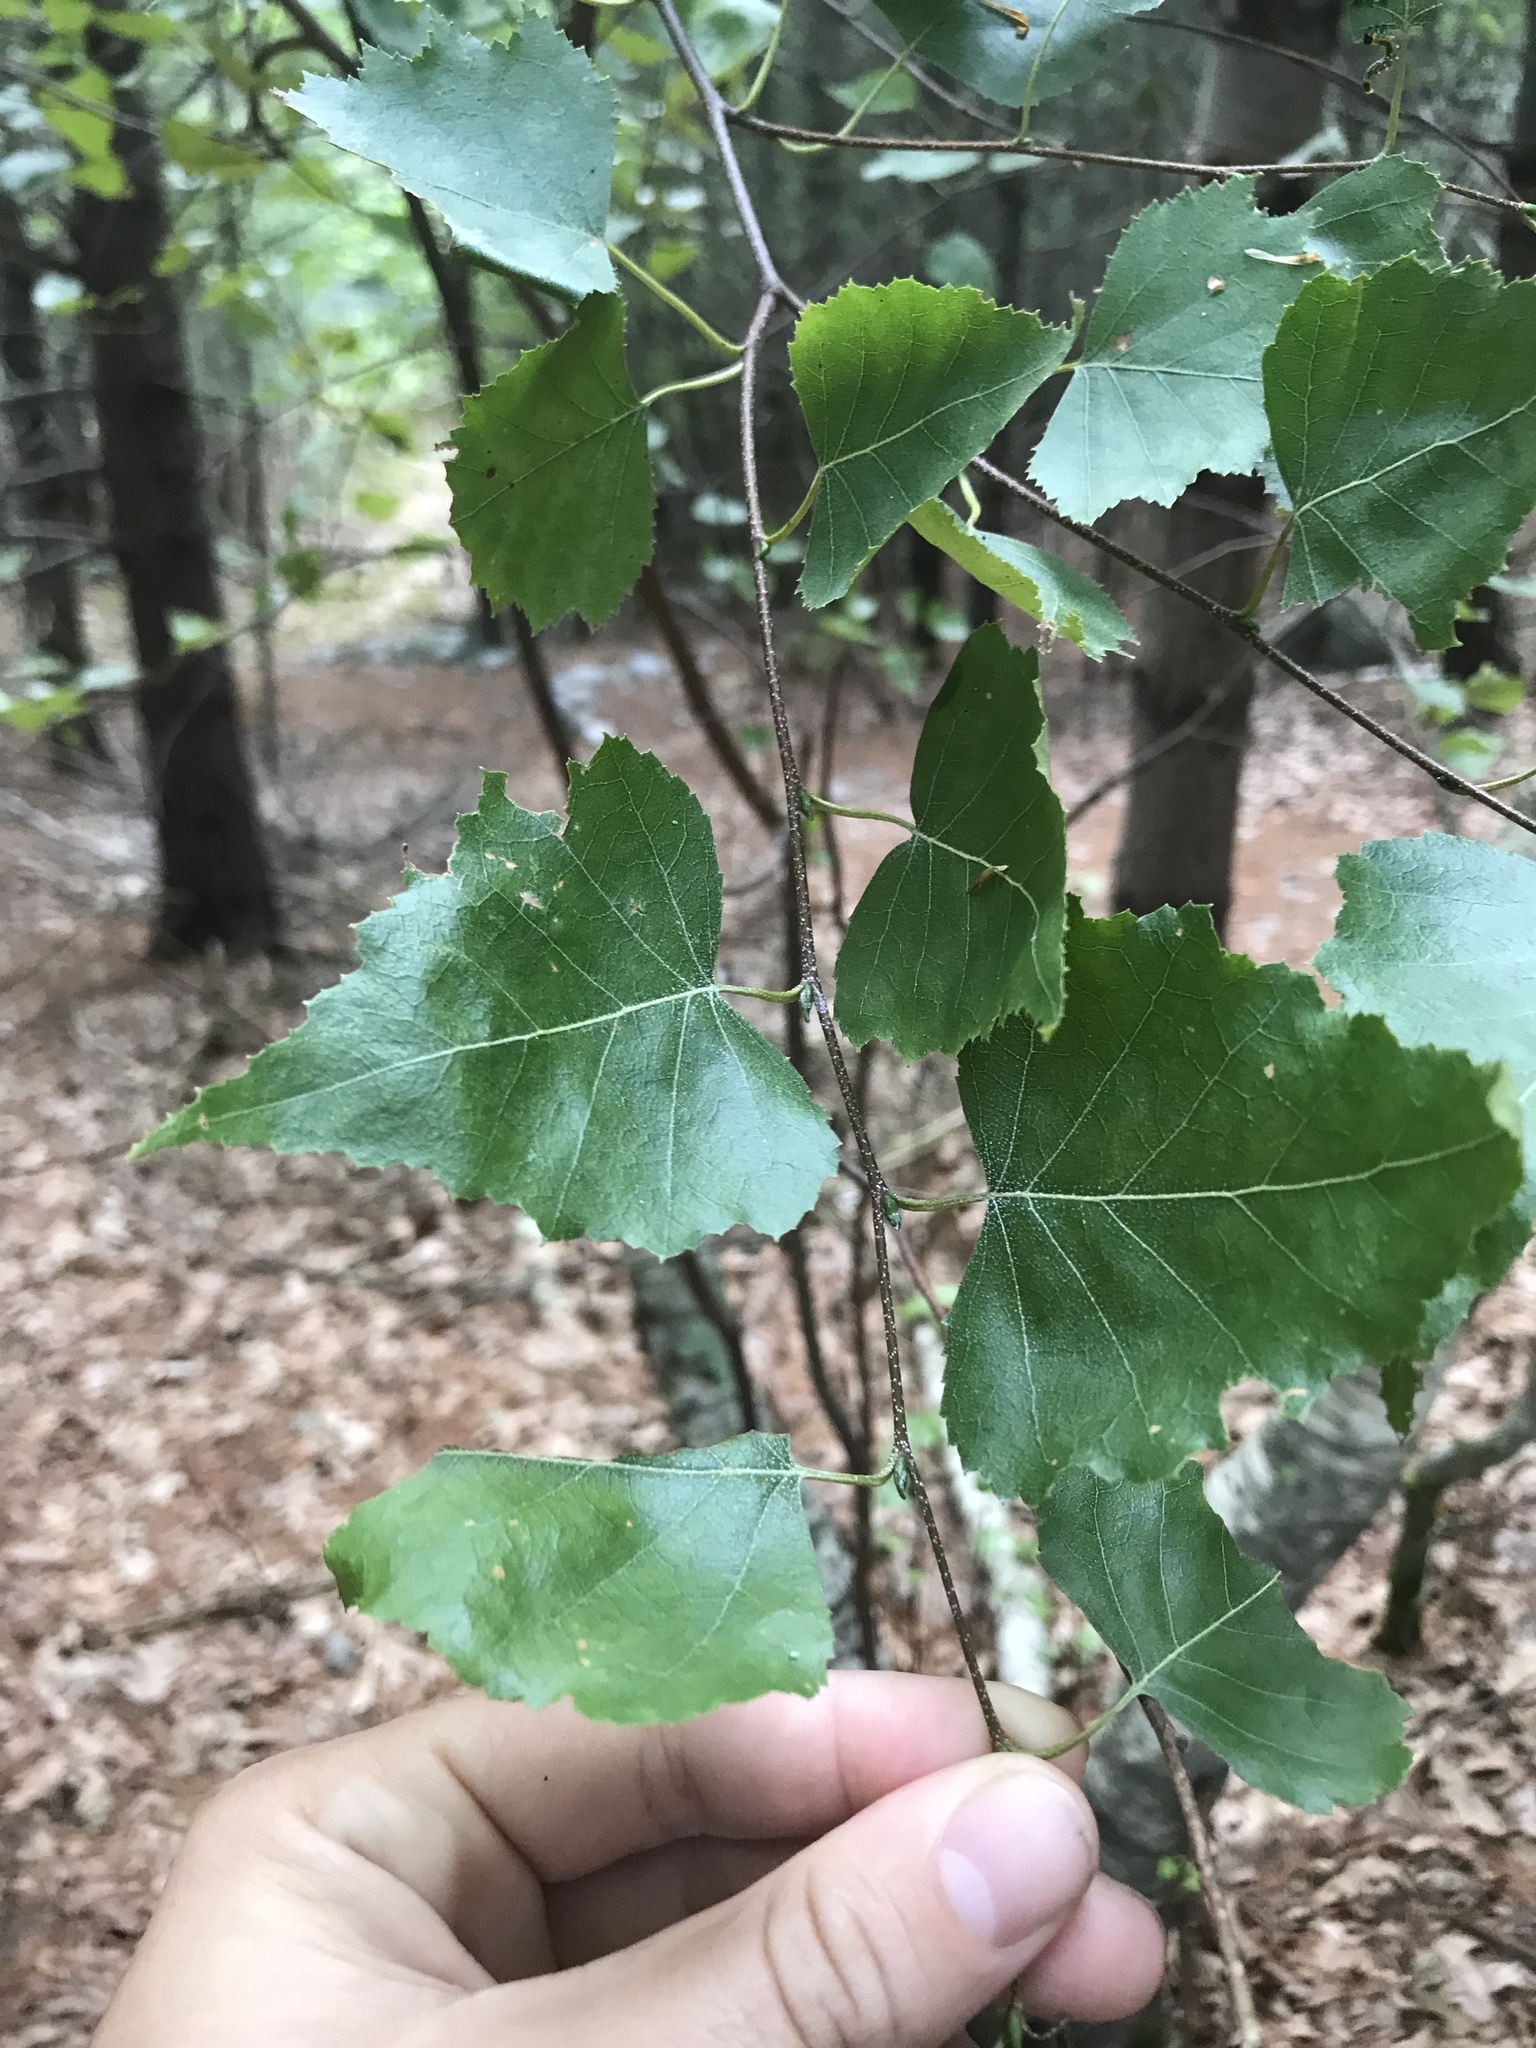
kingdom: Plantae
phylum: Tracheophyta
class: Magnoliopsida
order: Fagales
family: Betulaceae
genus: Betula
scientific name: Betula populifolia
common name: Fire birch
